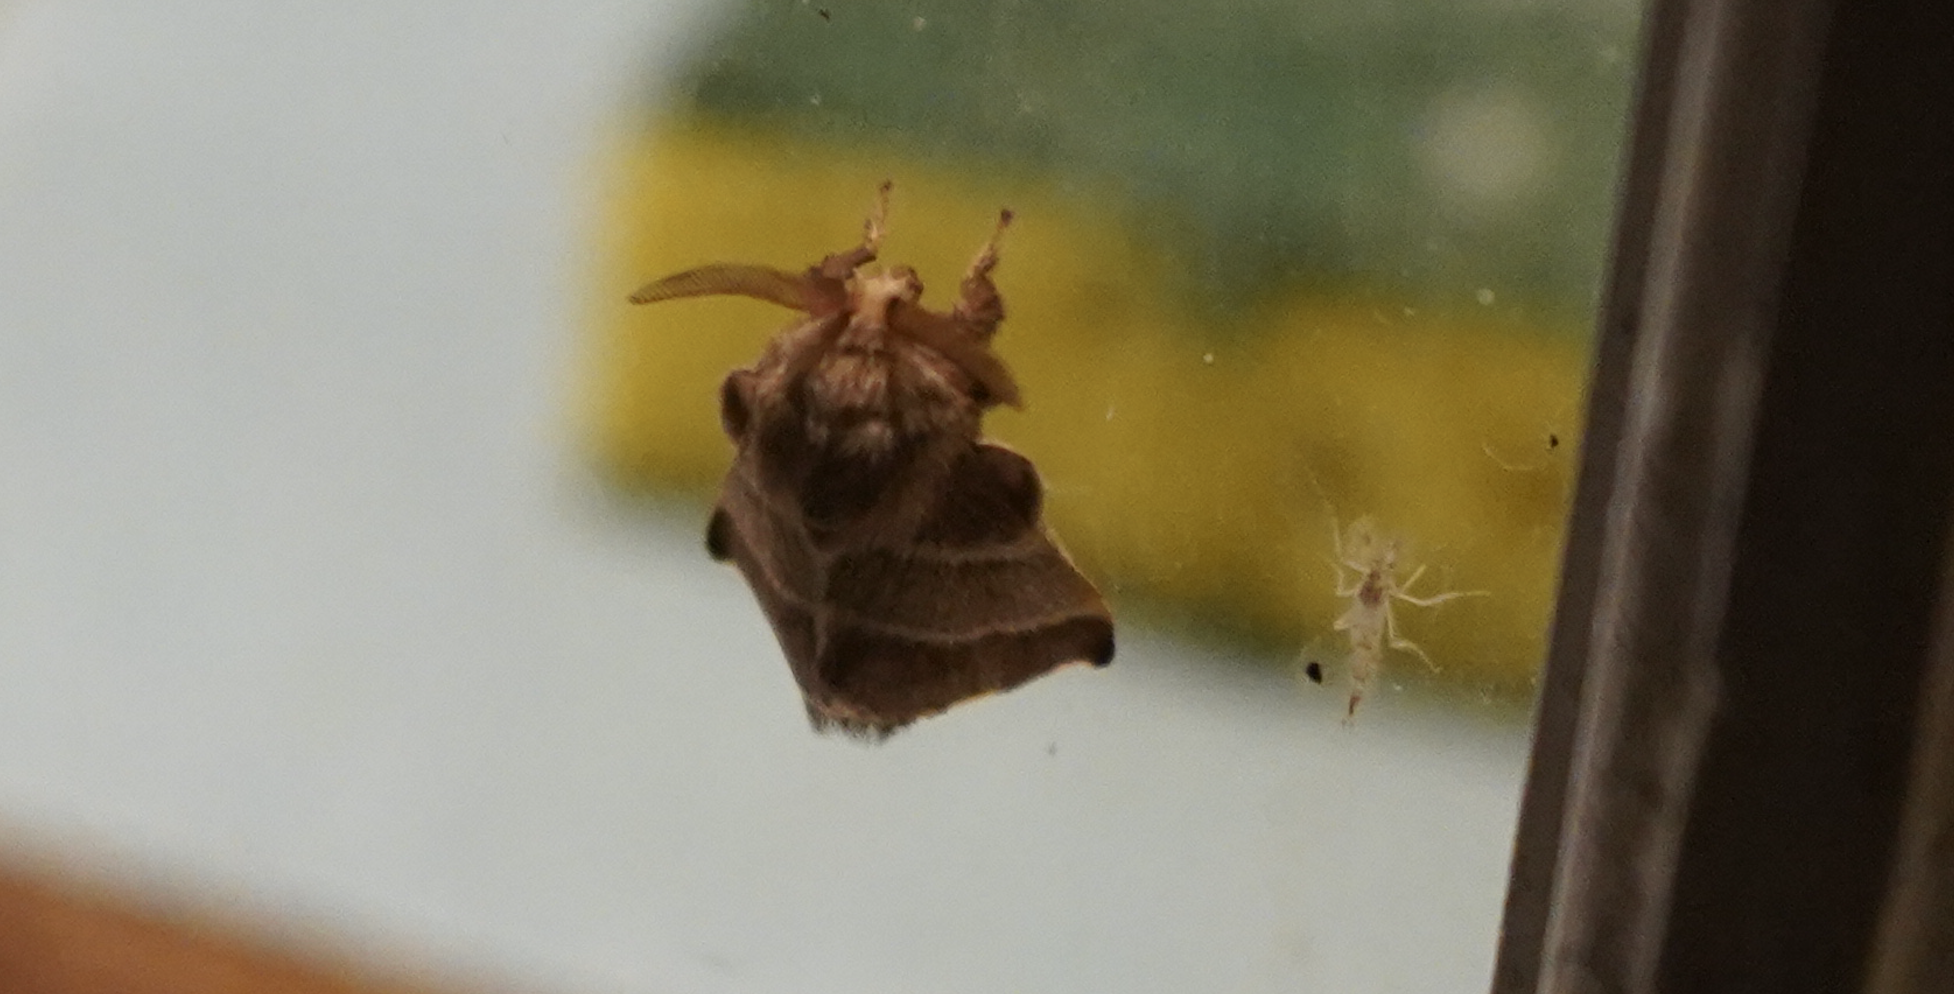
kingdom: Animalia
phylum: Arthropoda
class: Insecta
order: Lepidoptera
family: Lasiocampidae
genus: Malacosoma
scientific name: Malacosoma americana
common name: Eastern tent caterpillar moth
